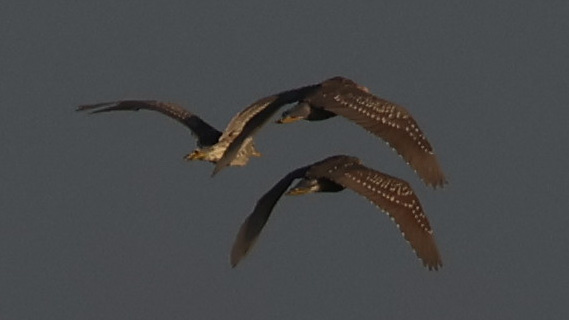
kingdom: Animalia
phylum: Chordata
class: Aves
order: Pelecaniformes
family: Ardeidae
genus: Nycticorax
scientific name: Nycticorax nycticorax
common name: Black-crowned night heron
